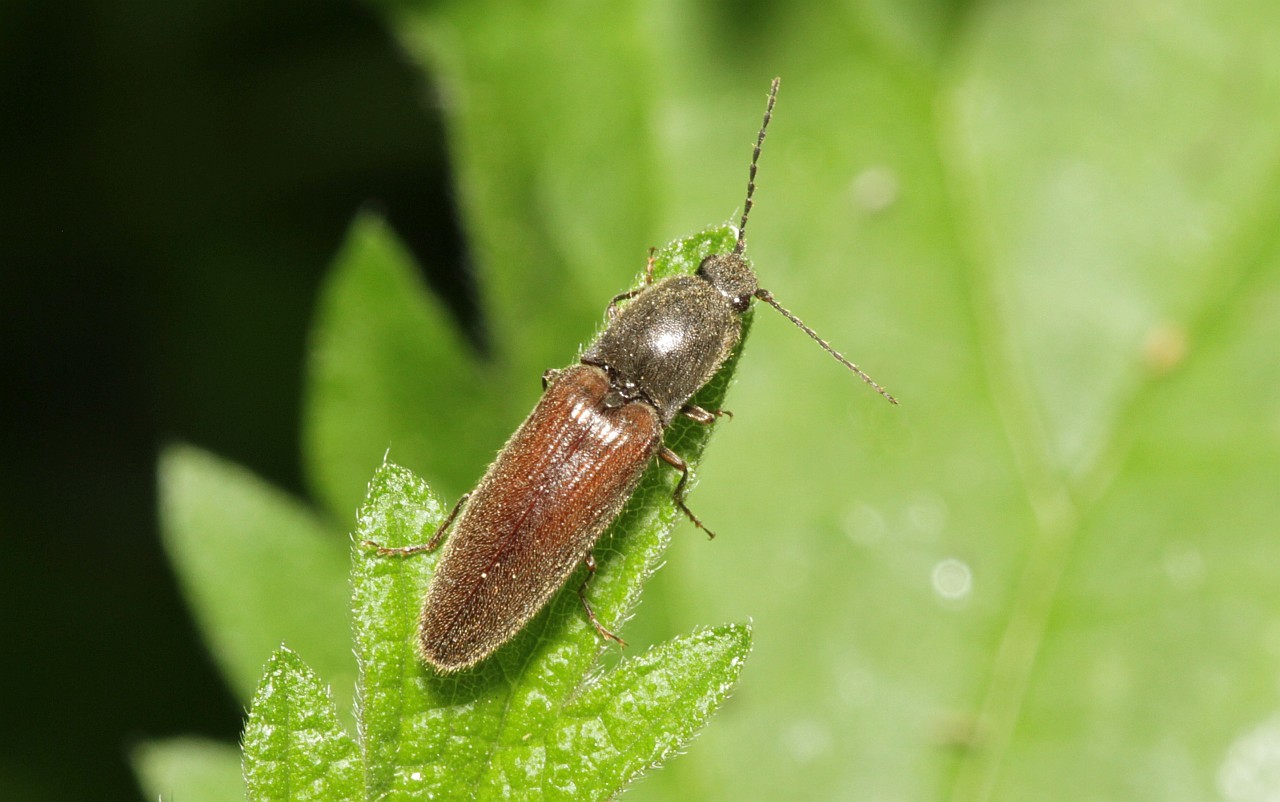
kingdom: Animalia
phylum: Arthropoda
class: Insecta
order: Coleoptera
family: Elateridae
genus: Athous
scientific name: Athous haemorrhoidalis
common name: Red-brown click beetle
